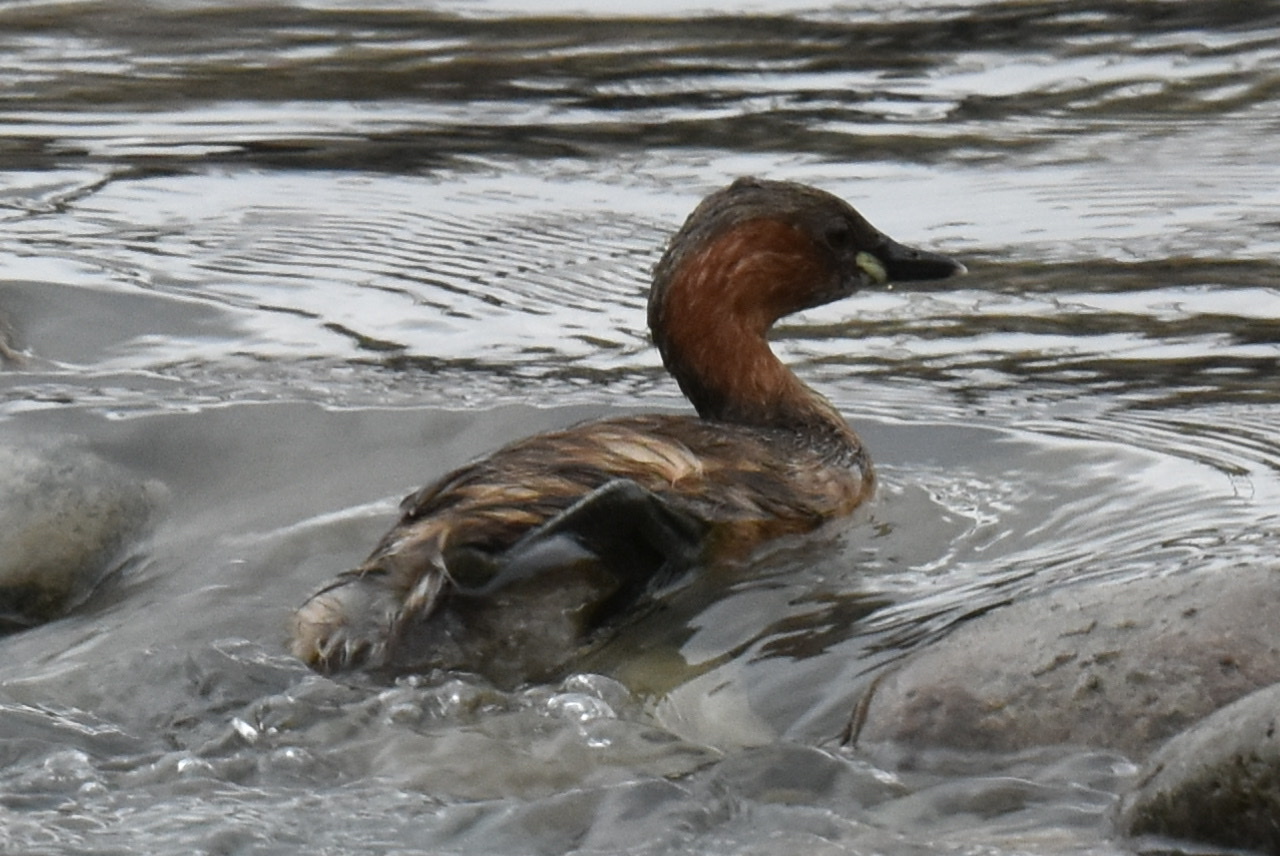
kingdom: Animalia
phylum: Chordata
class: Aves
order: Podicipediformes
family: Podicipedidae
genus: Tachybaptus
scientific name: Tachybaptus ruficollis
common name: Little grebe
